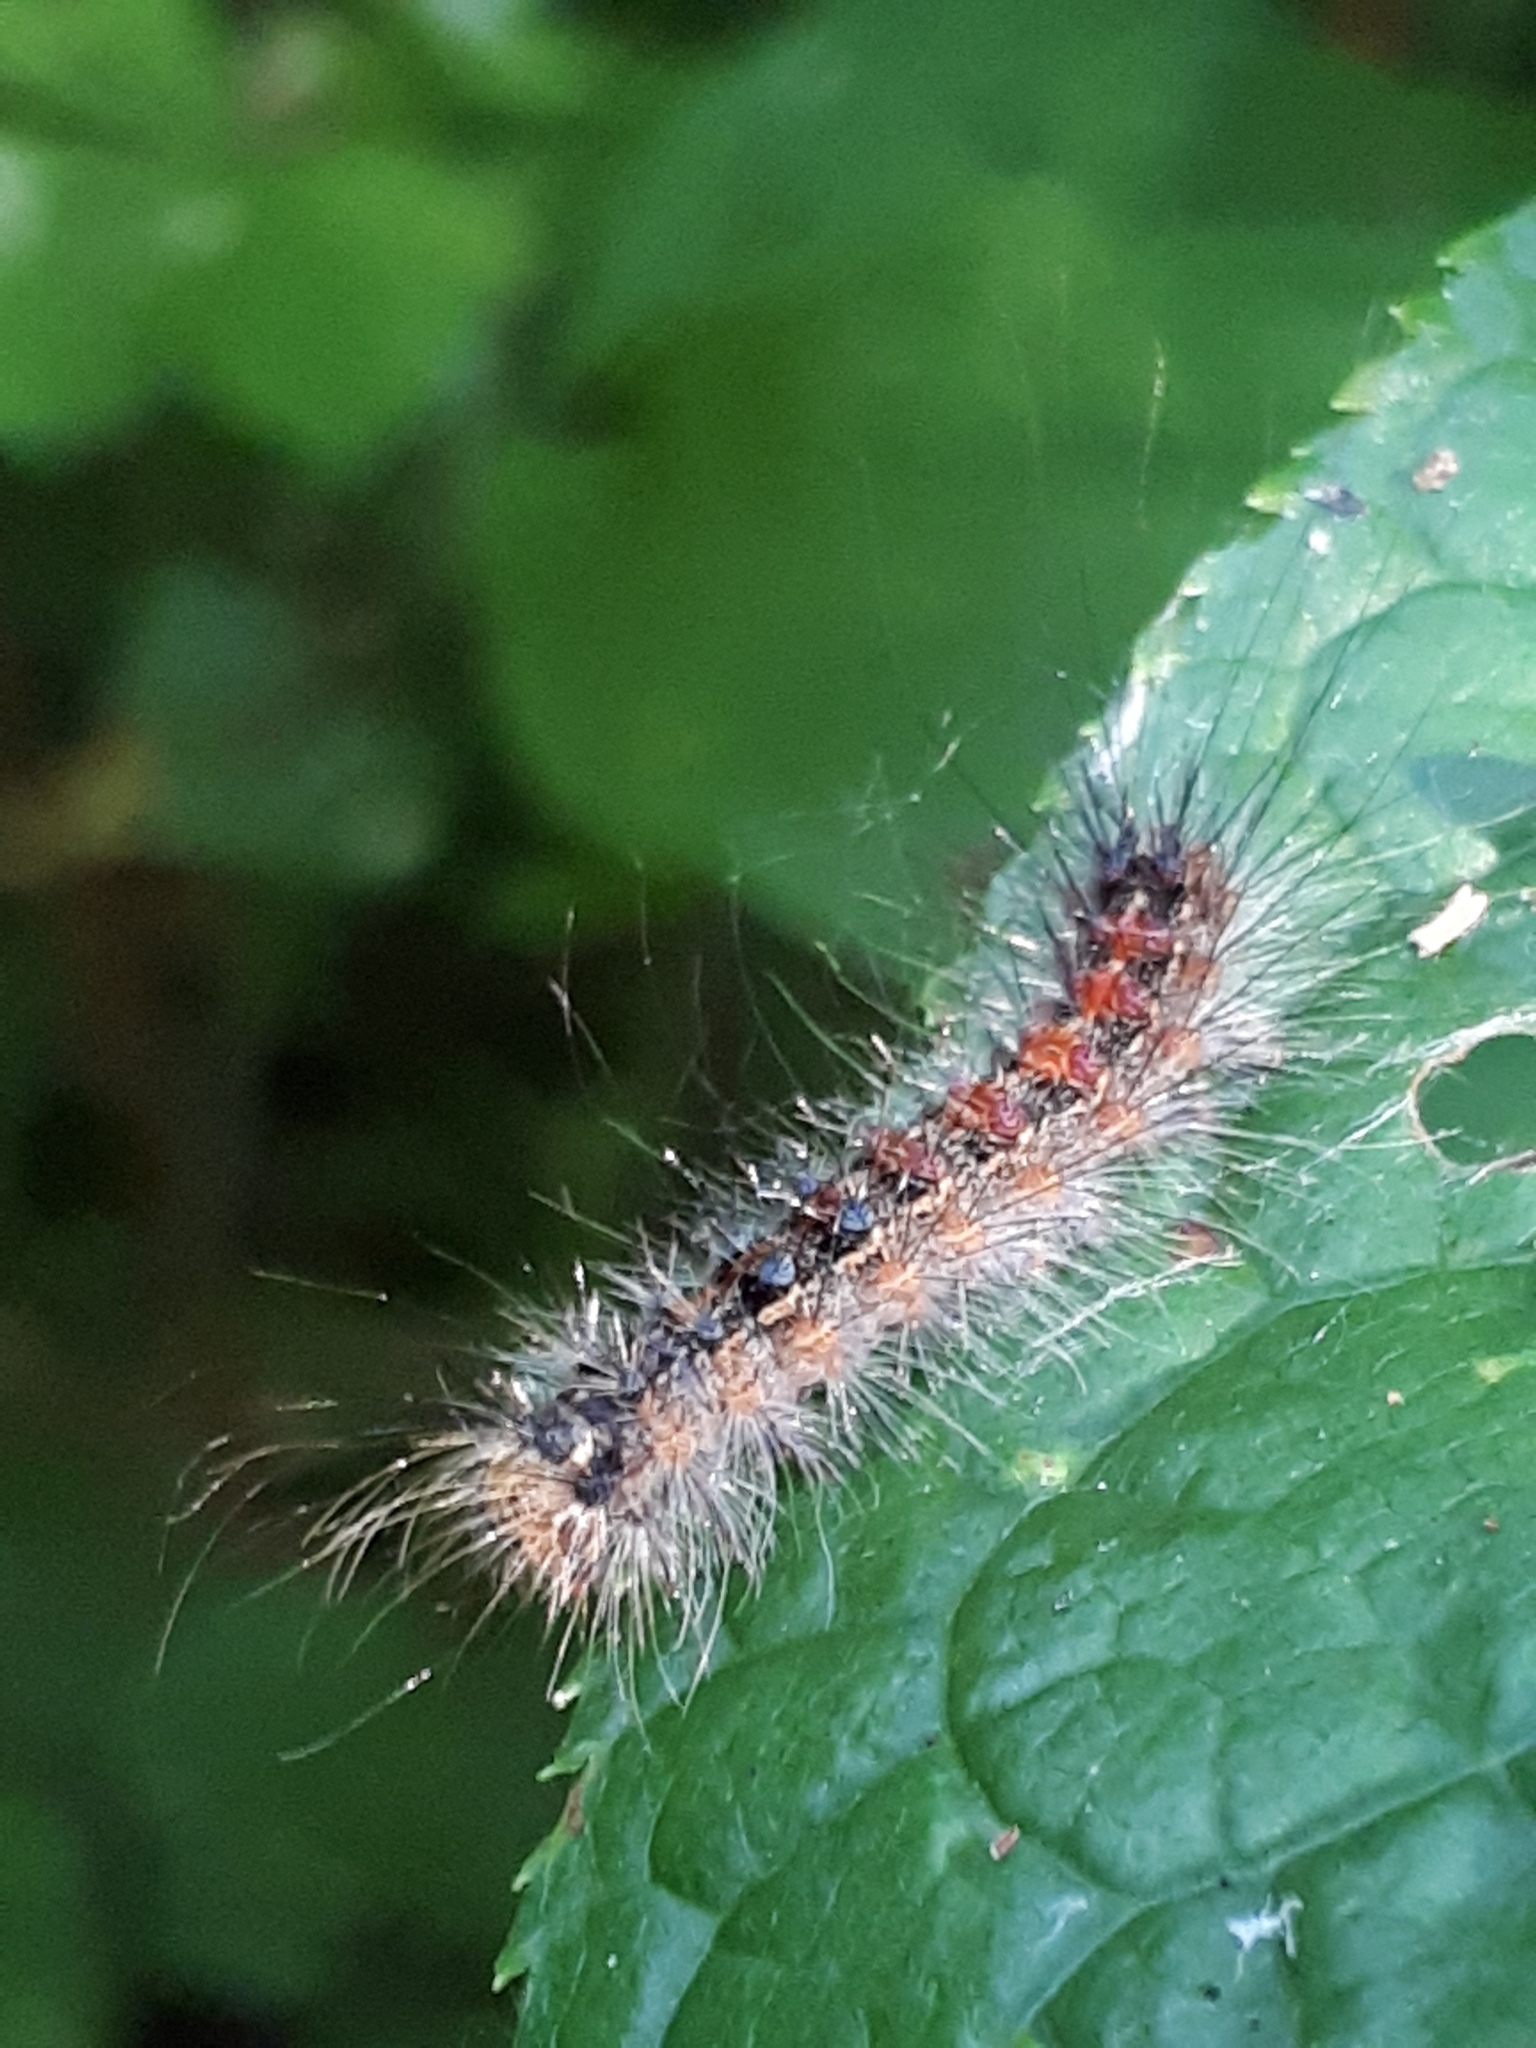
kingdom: Animalia
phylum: Arthropoda
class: Insecta
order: Lepidoptera
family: Erebidae
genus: Lymantria
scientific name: Lymantria dispar
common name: Gypsy moth
